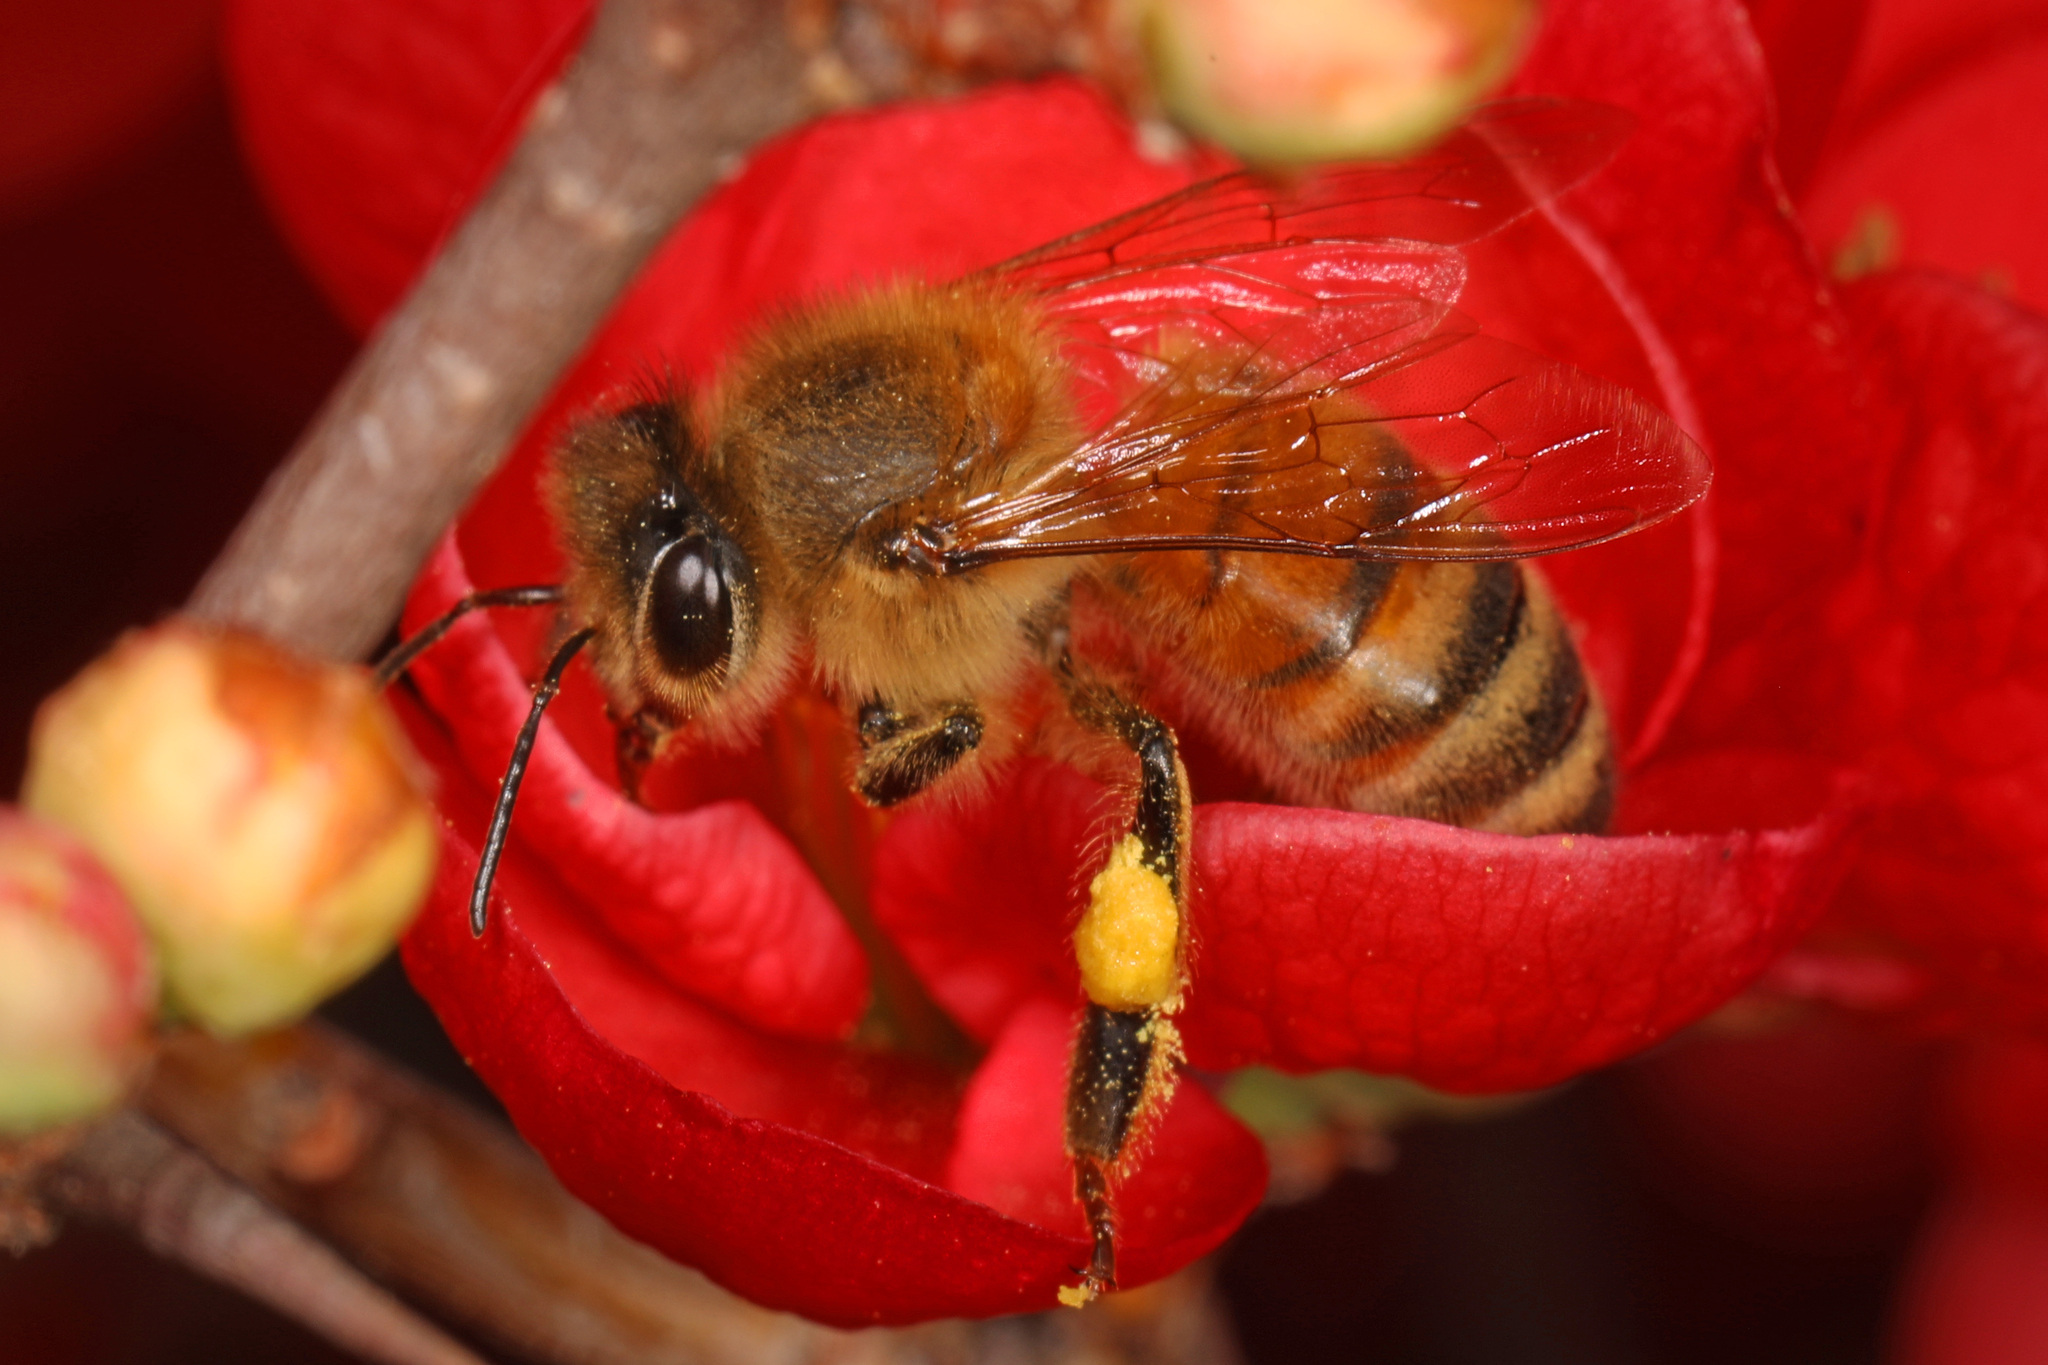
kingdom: Animalia
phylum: Arthropoda
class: Insecta
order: Hymenoptera
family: Apidae
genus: Apis
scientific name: Apis mellifera
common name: Honey bee
